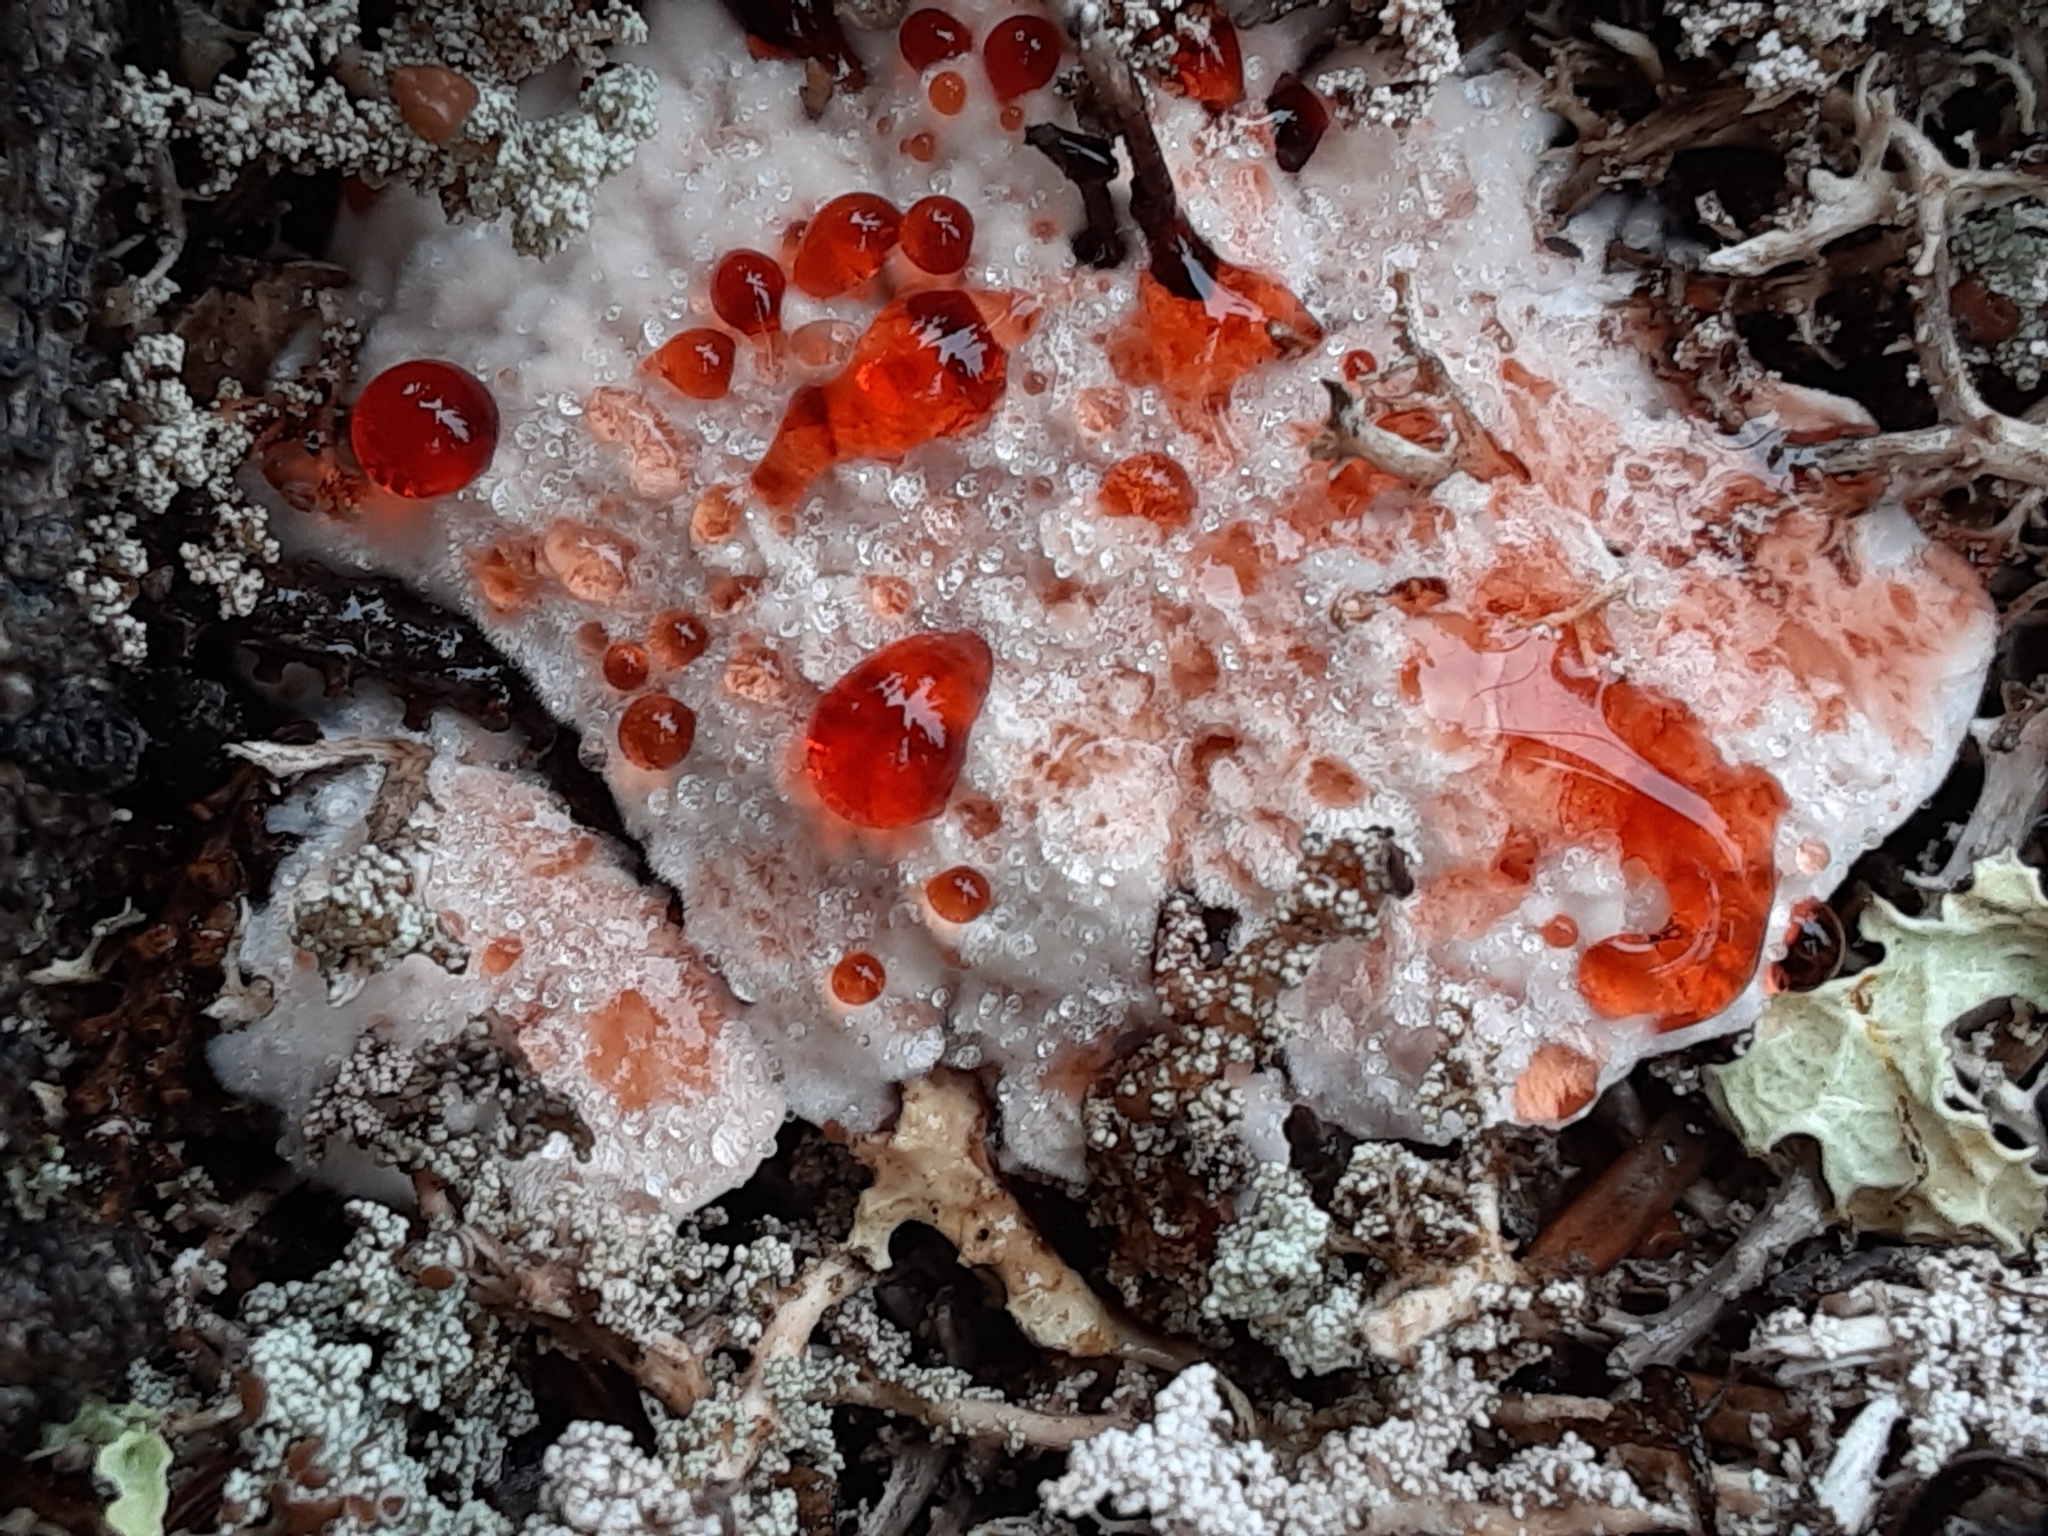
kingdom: Fungi
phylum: Basidiomycota
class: Agaricomycetes
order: Thelephorales
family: Bankeraceae
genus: Hydnellum
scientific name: Hydnellum peckii
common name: Devil's tooth
